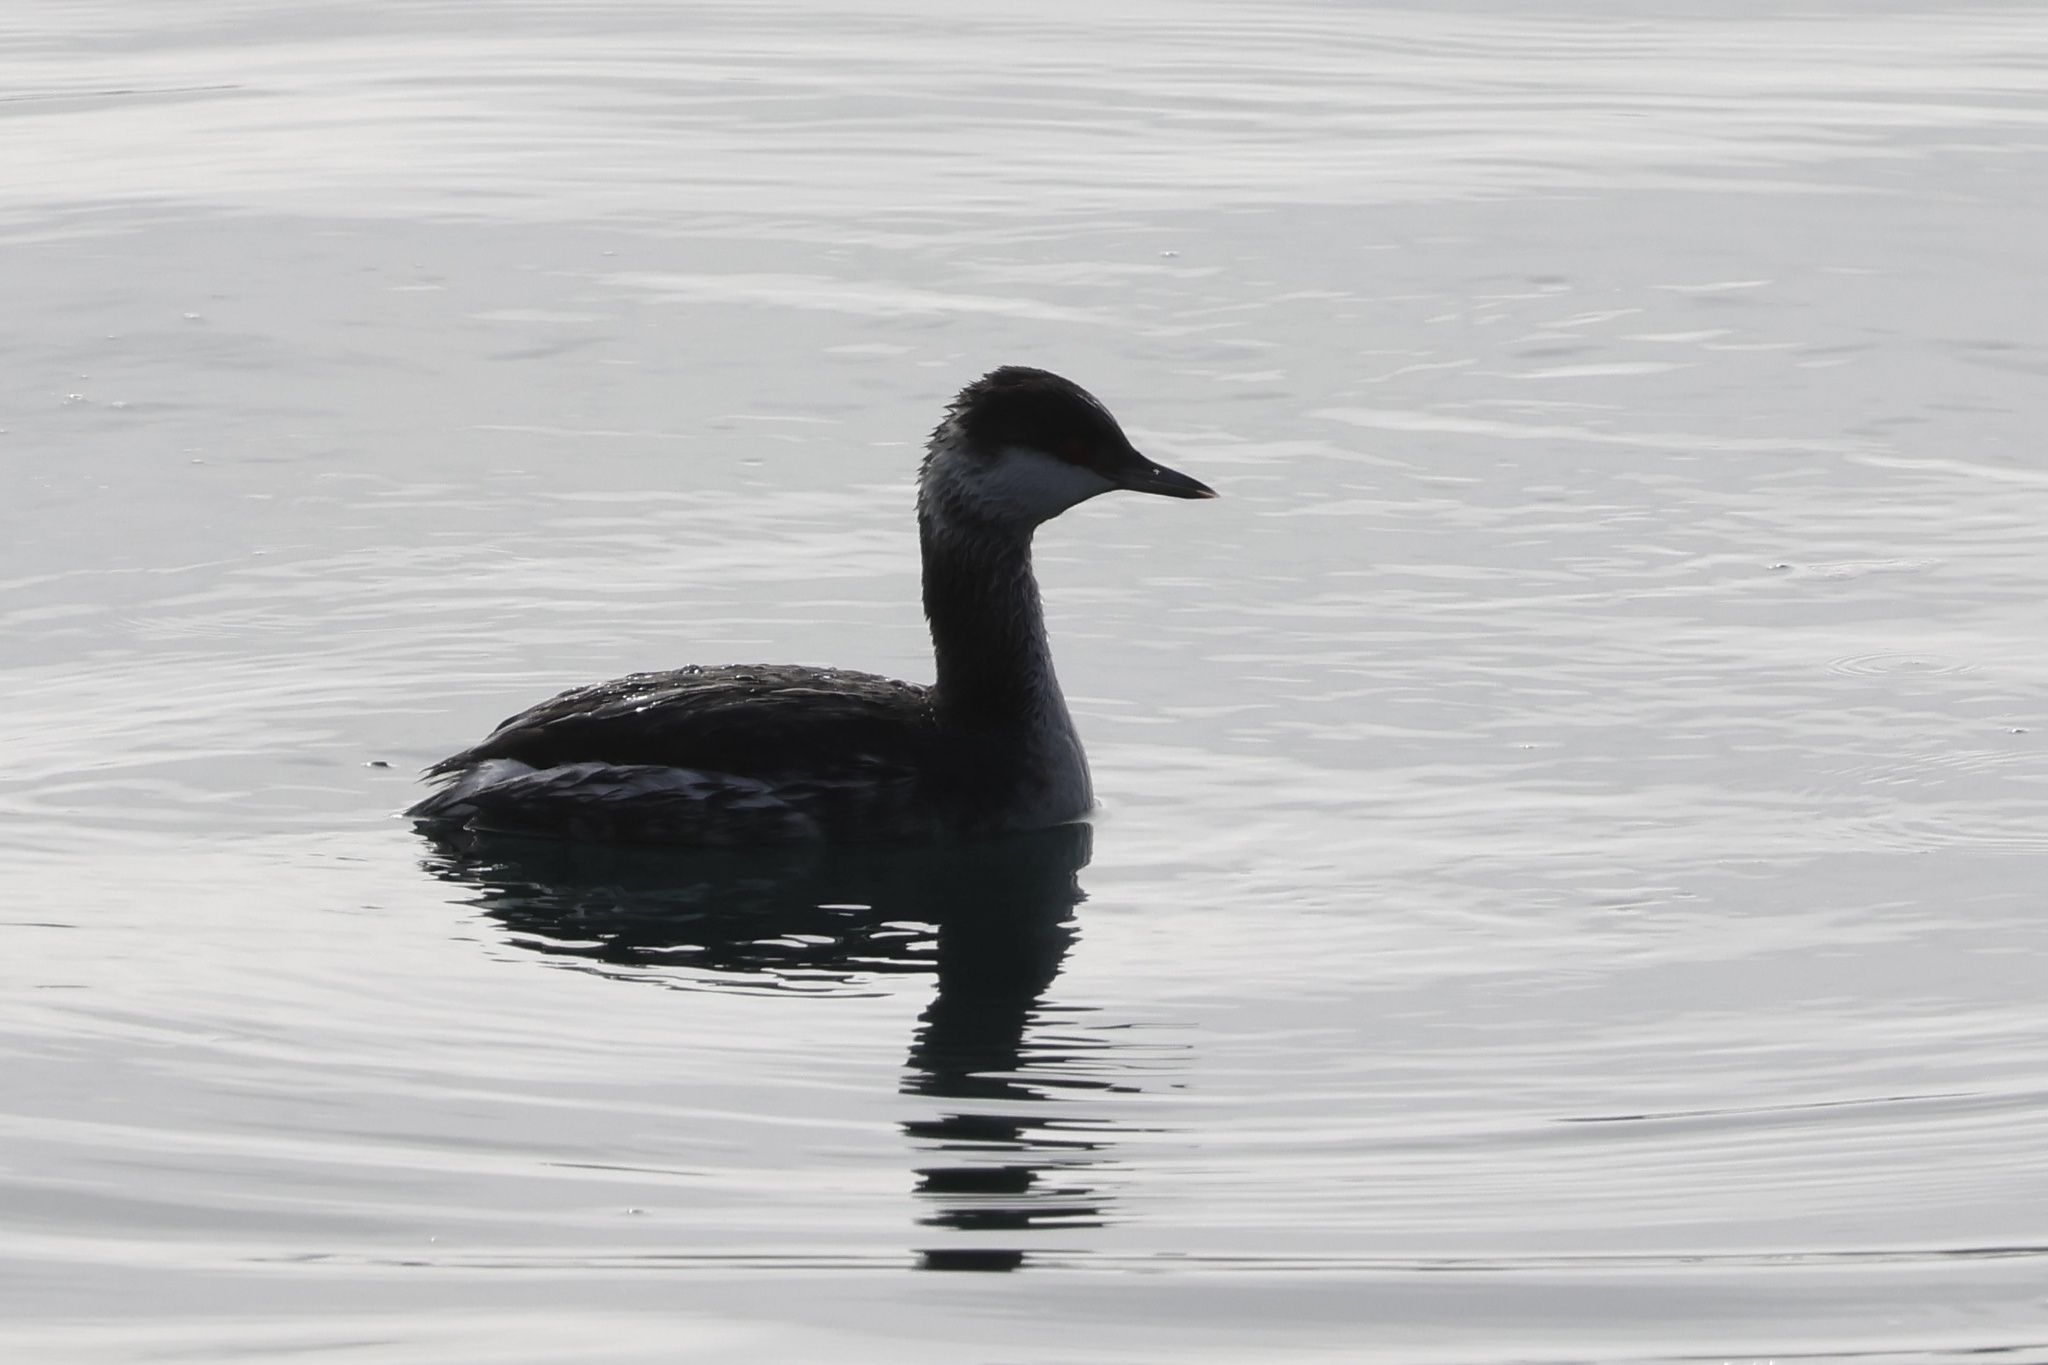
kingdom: Animalia
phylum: Chordata
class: Aves
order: Podicipediformes
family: Podicipedidae
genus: Podiceps
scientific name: Podiceps auritus
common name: Horned grebe
